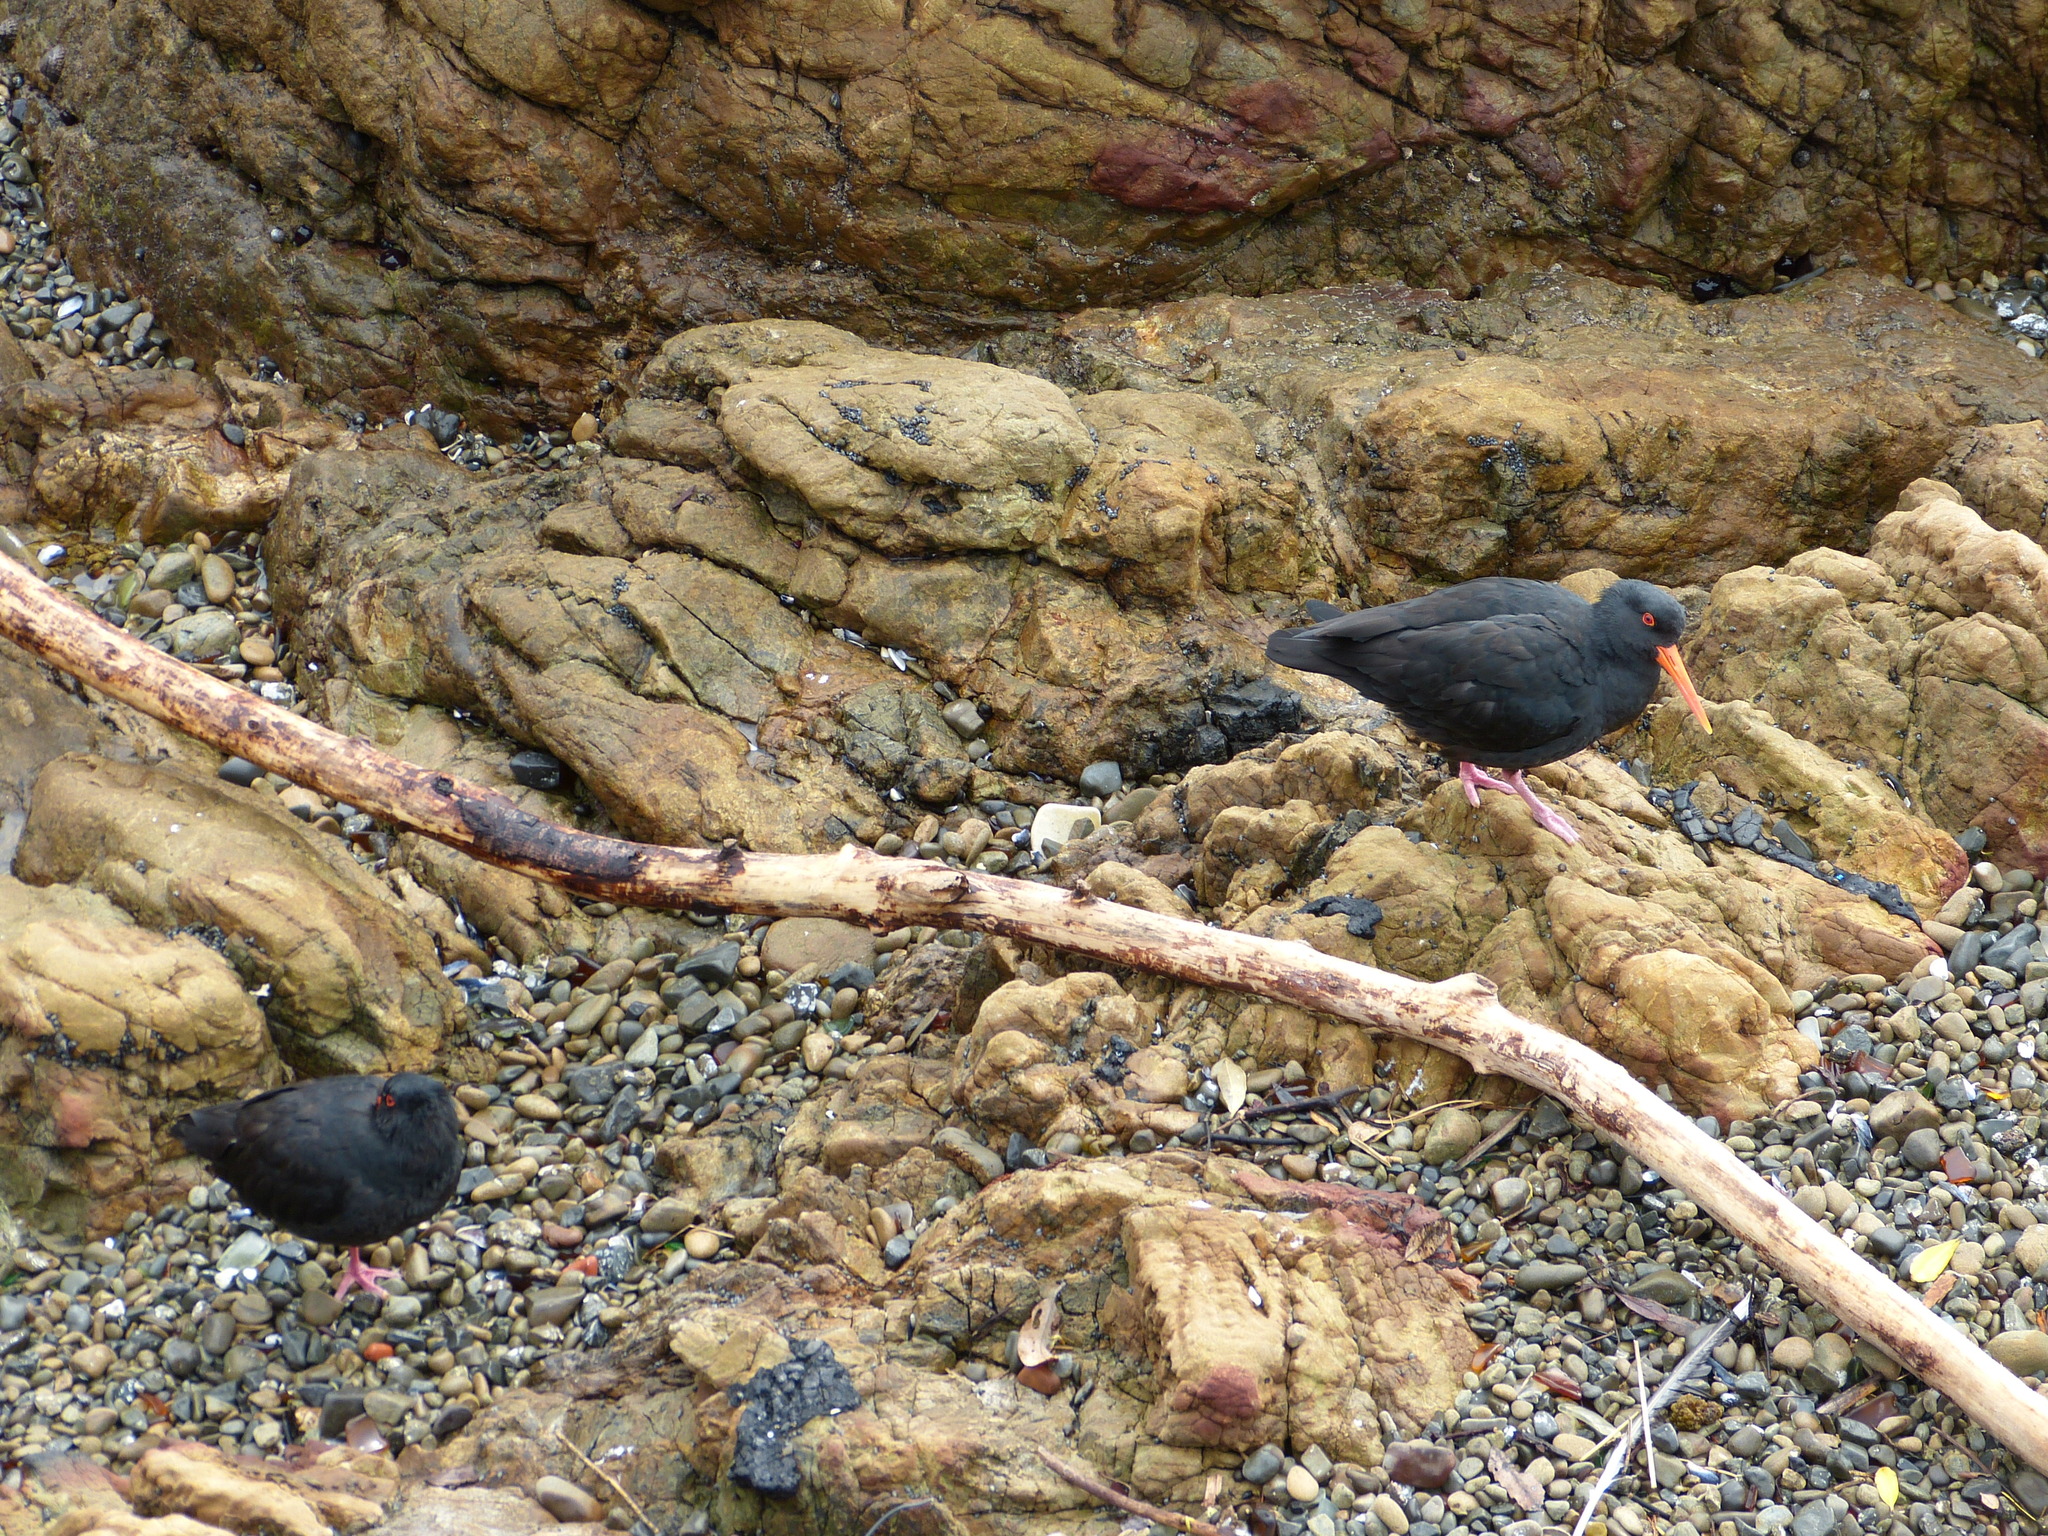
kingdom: Animalia
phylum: Chordata
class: Aves
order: Charadriiformes
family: Haematopodidae
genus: Haematopus
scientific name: Haematopus unicolor
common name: Variable oystercatcher
